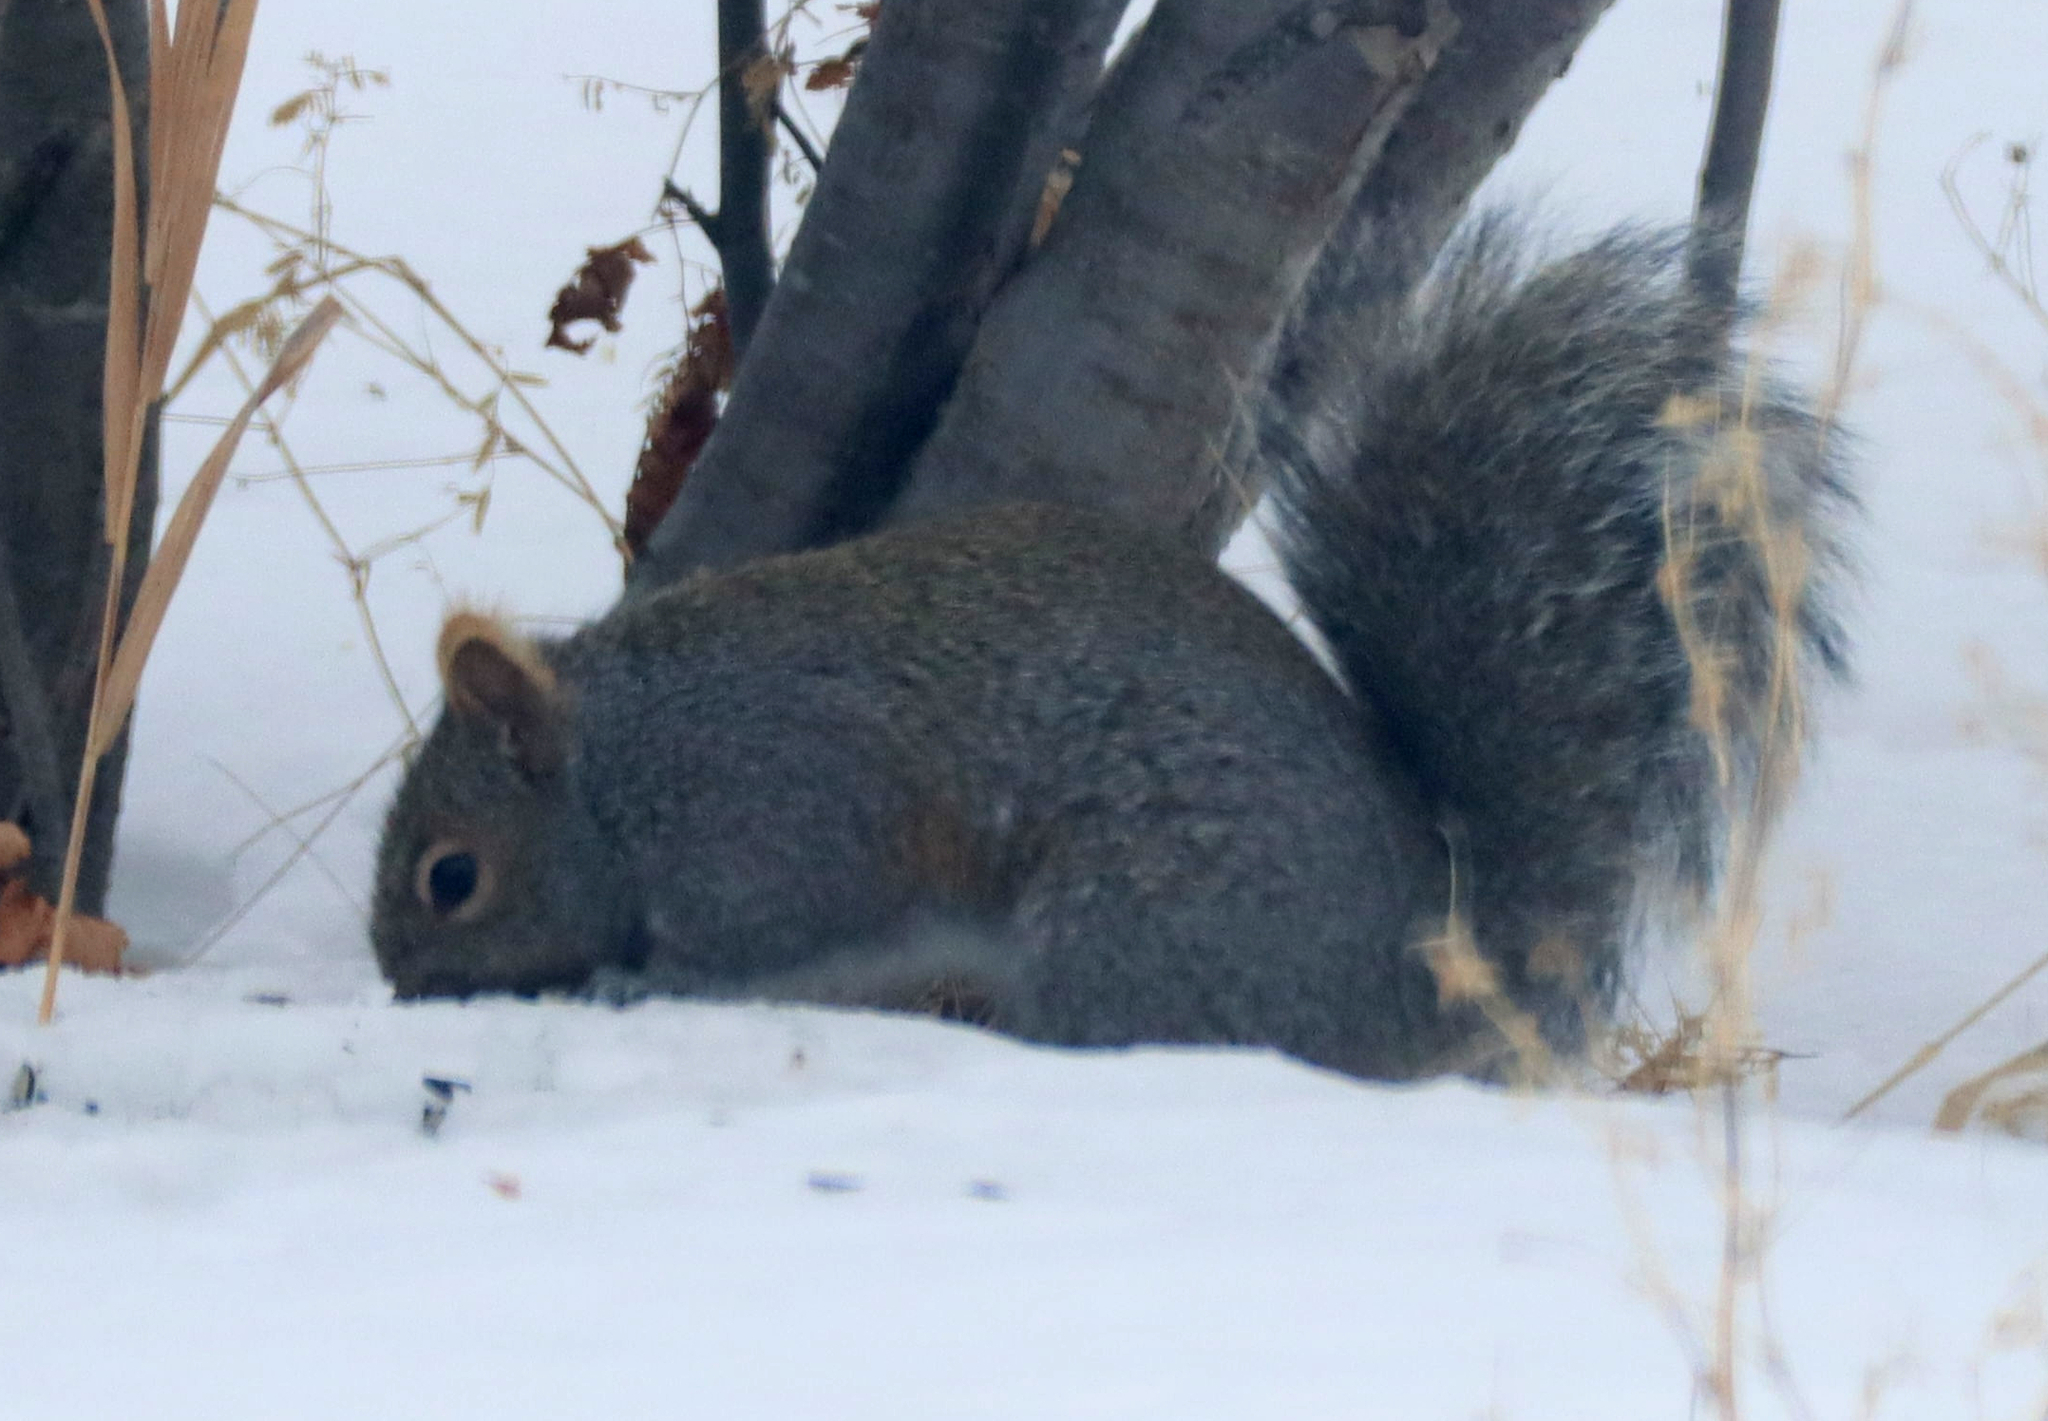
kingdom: Animalia
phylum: Chordata
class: Mammalia
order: Rodentia
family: Sciuridae
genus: Sciurus
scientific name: Sciurus carolinensis
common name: Eastern gray squirrel
